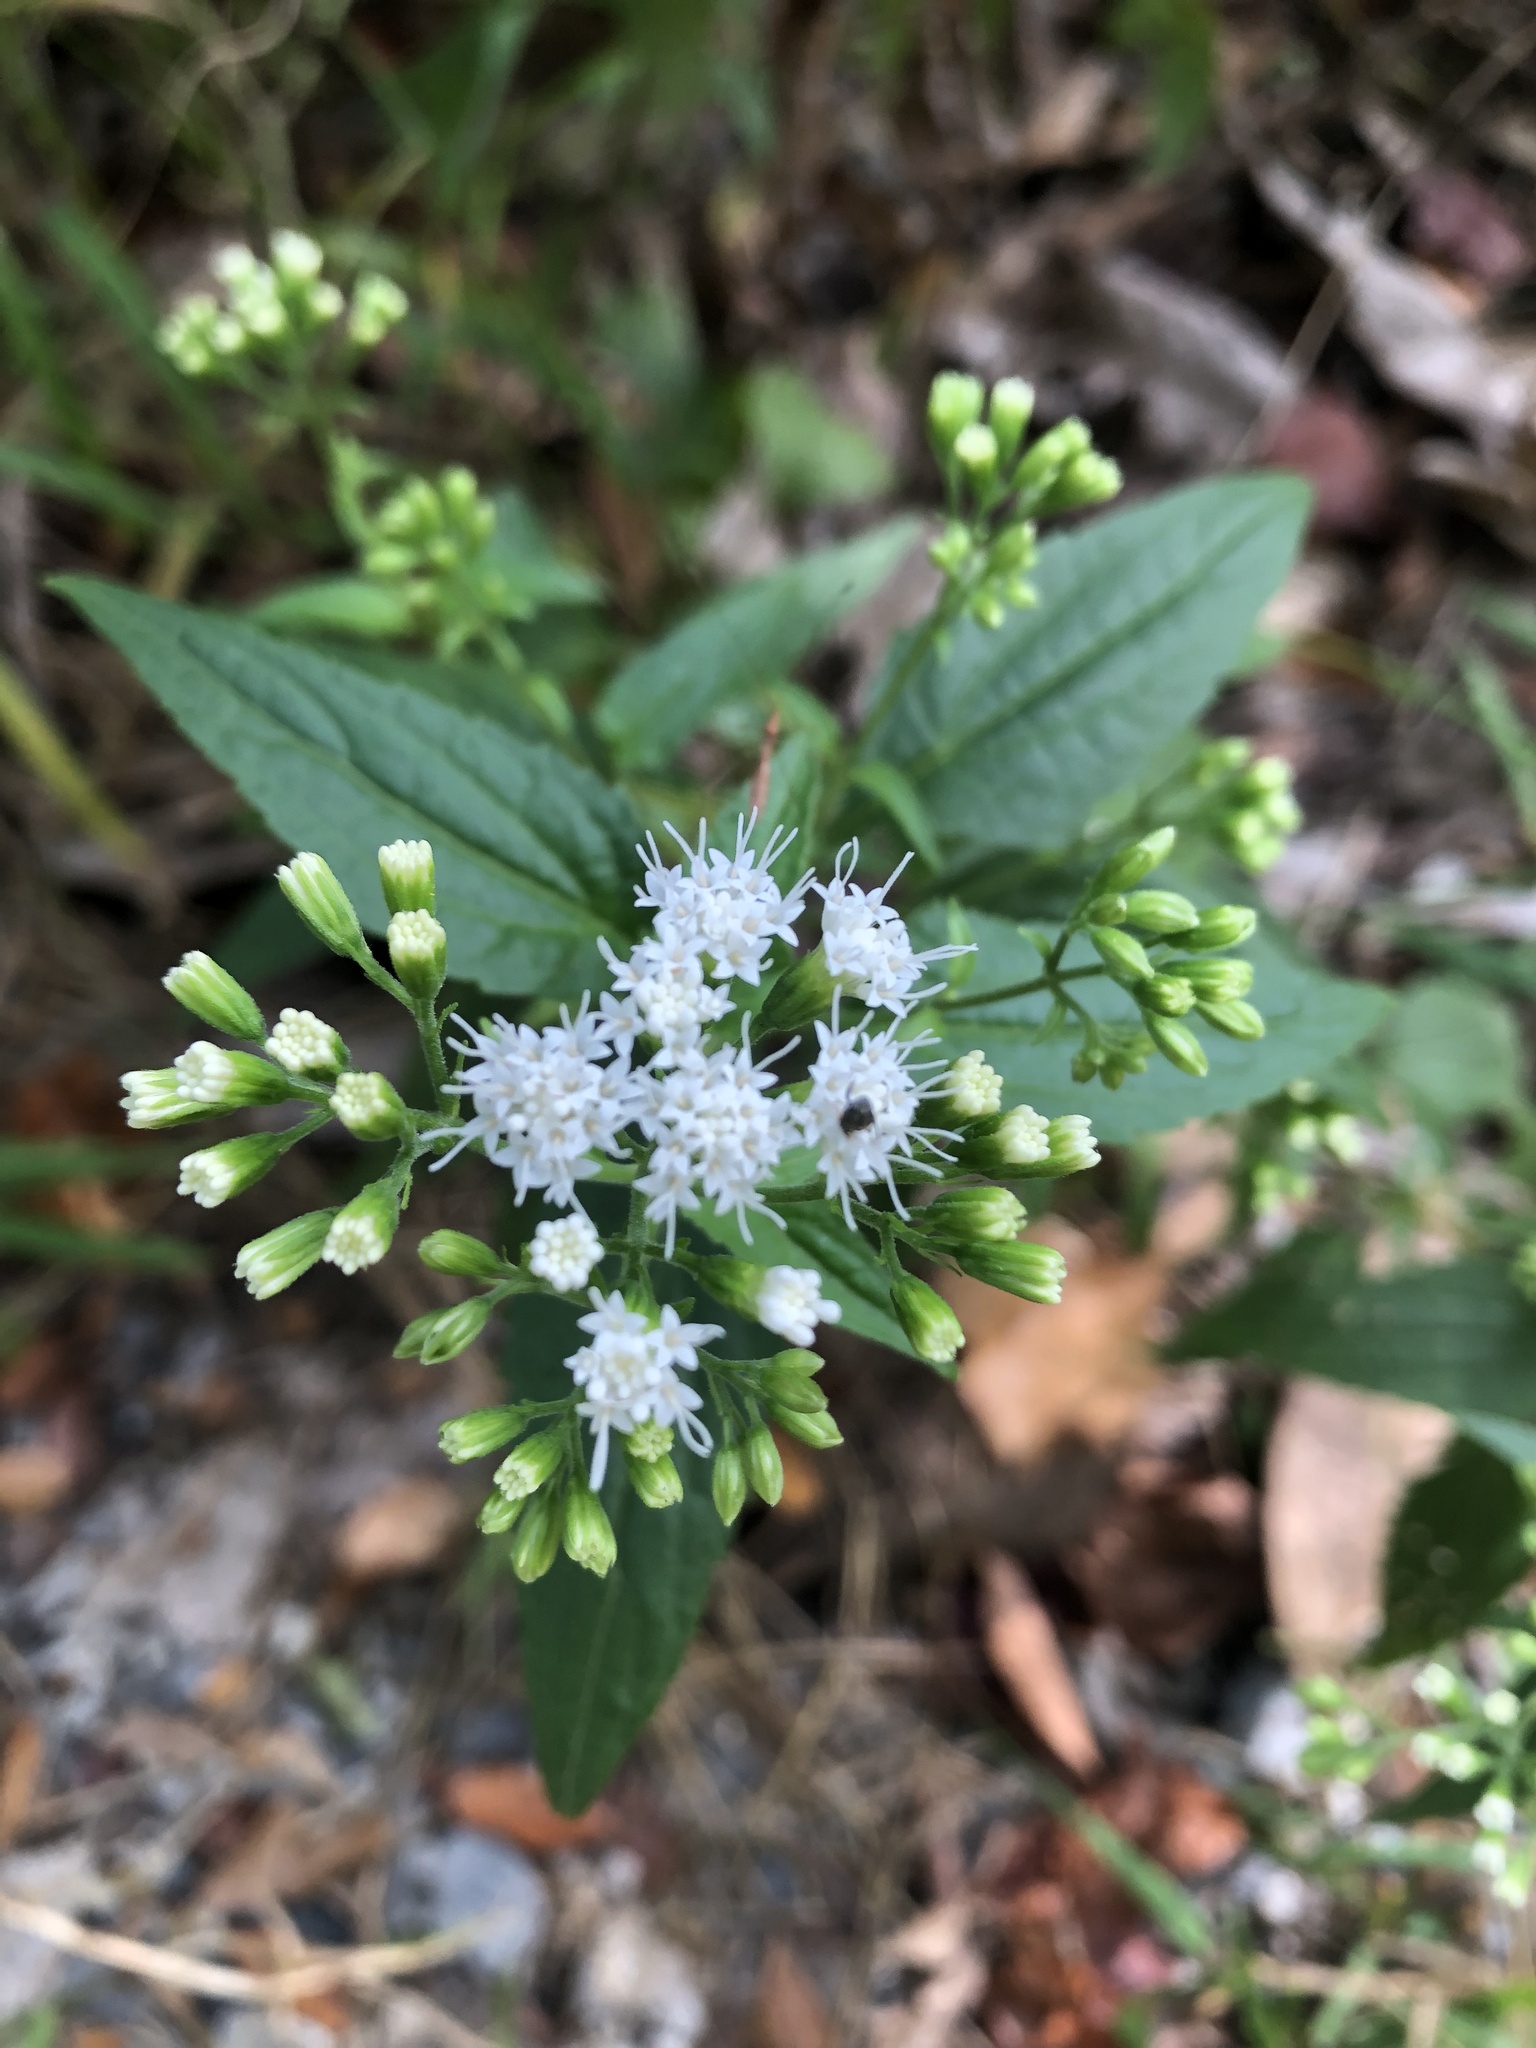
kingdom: Plantae
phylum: Tracheophyta
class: Magnoliopsida
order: Asterales
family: Asteraceae
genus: Ageratina
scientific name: Ageratina altissima
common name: White snakeroot
